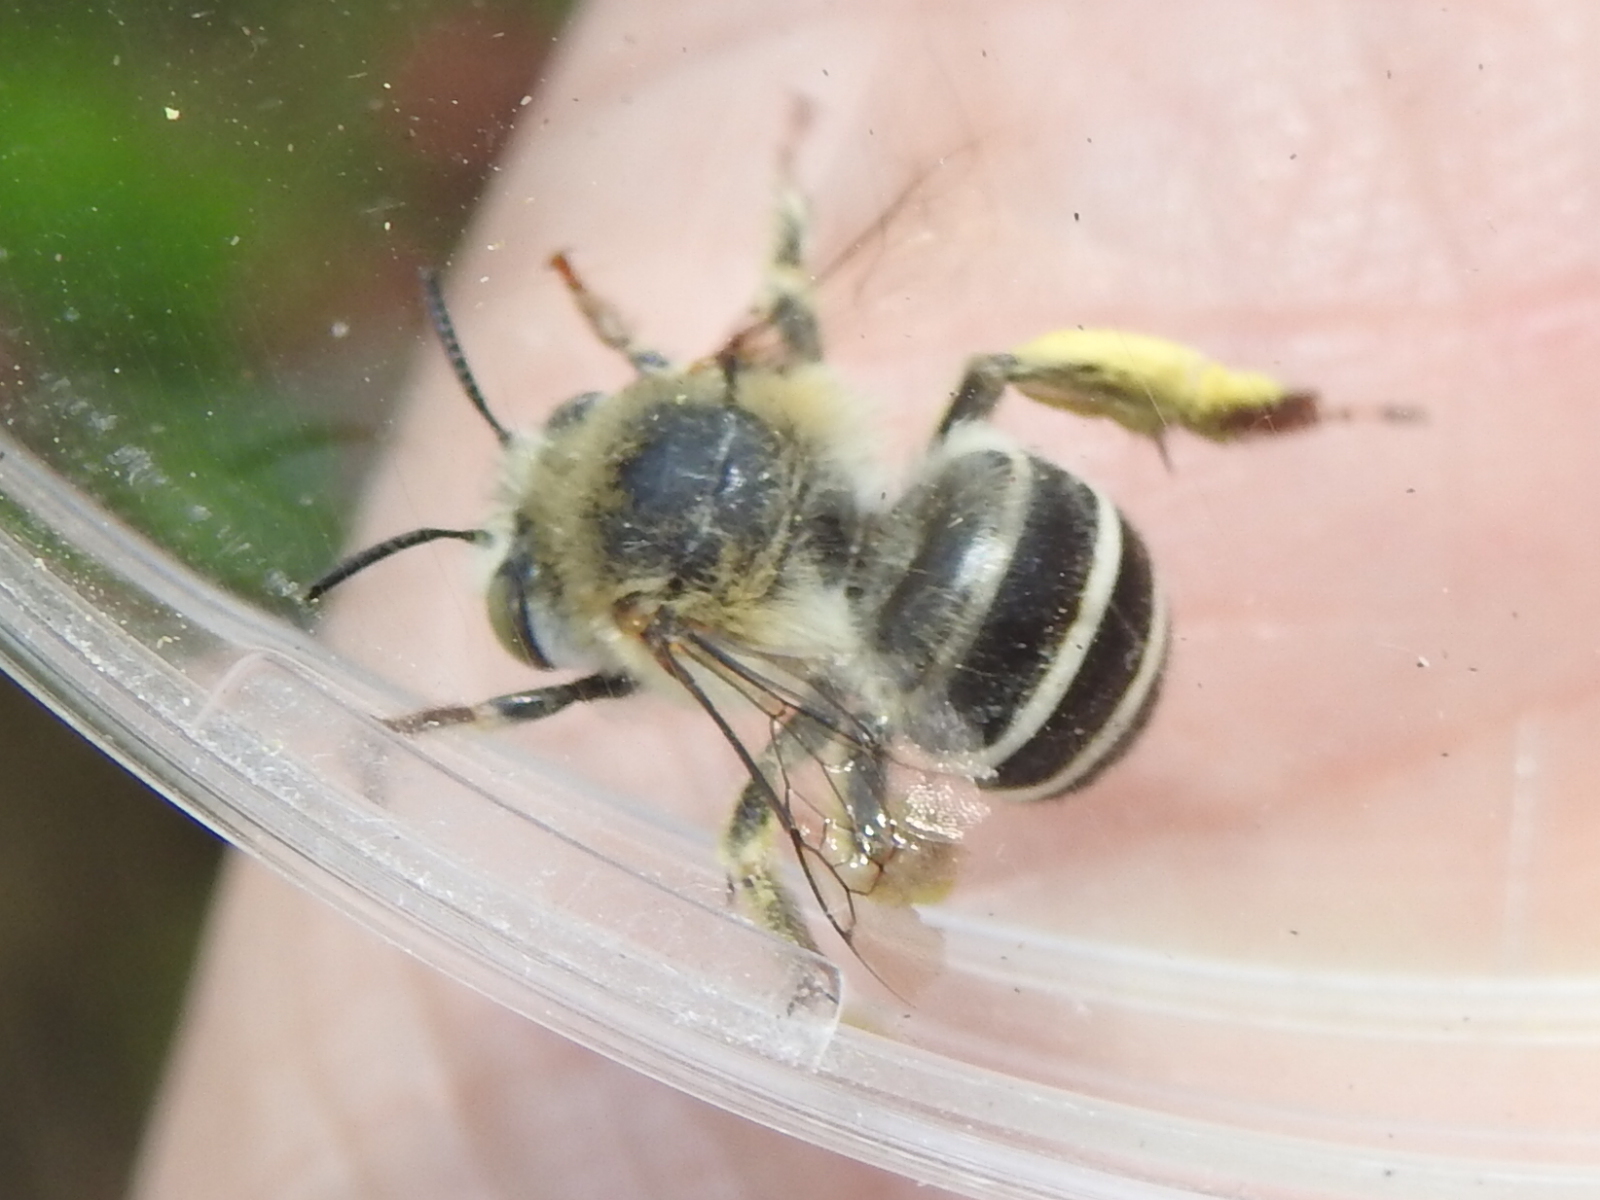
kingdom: Animalia
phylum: Arthropoda
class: Insecta
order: Hymenoptera
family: Apidae
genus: Anthophora
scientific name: Anthophora californica
